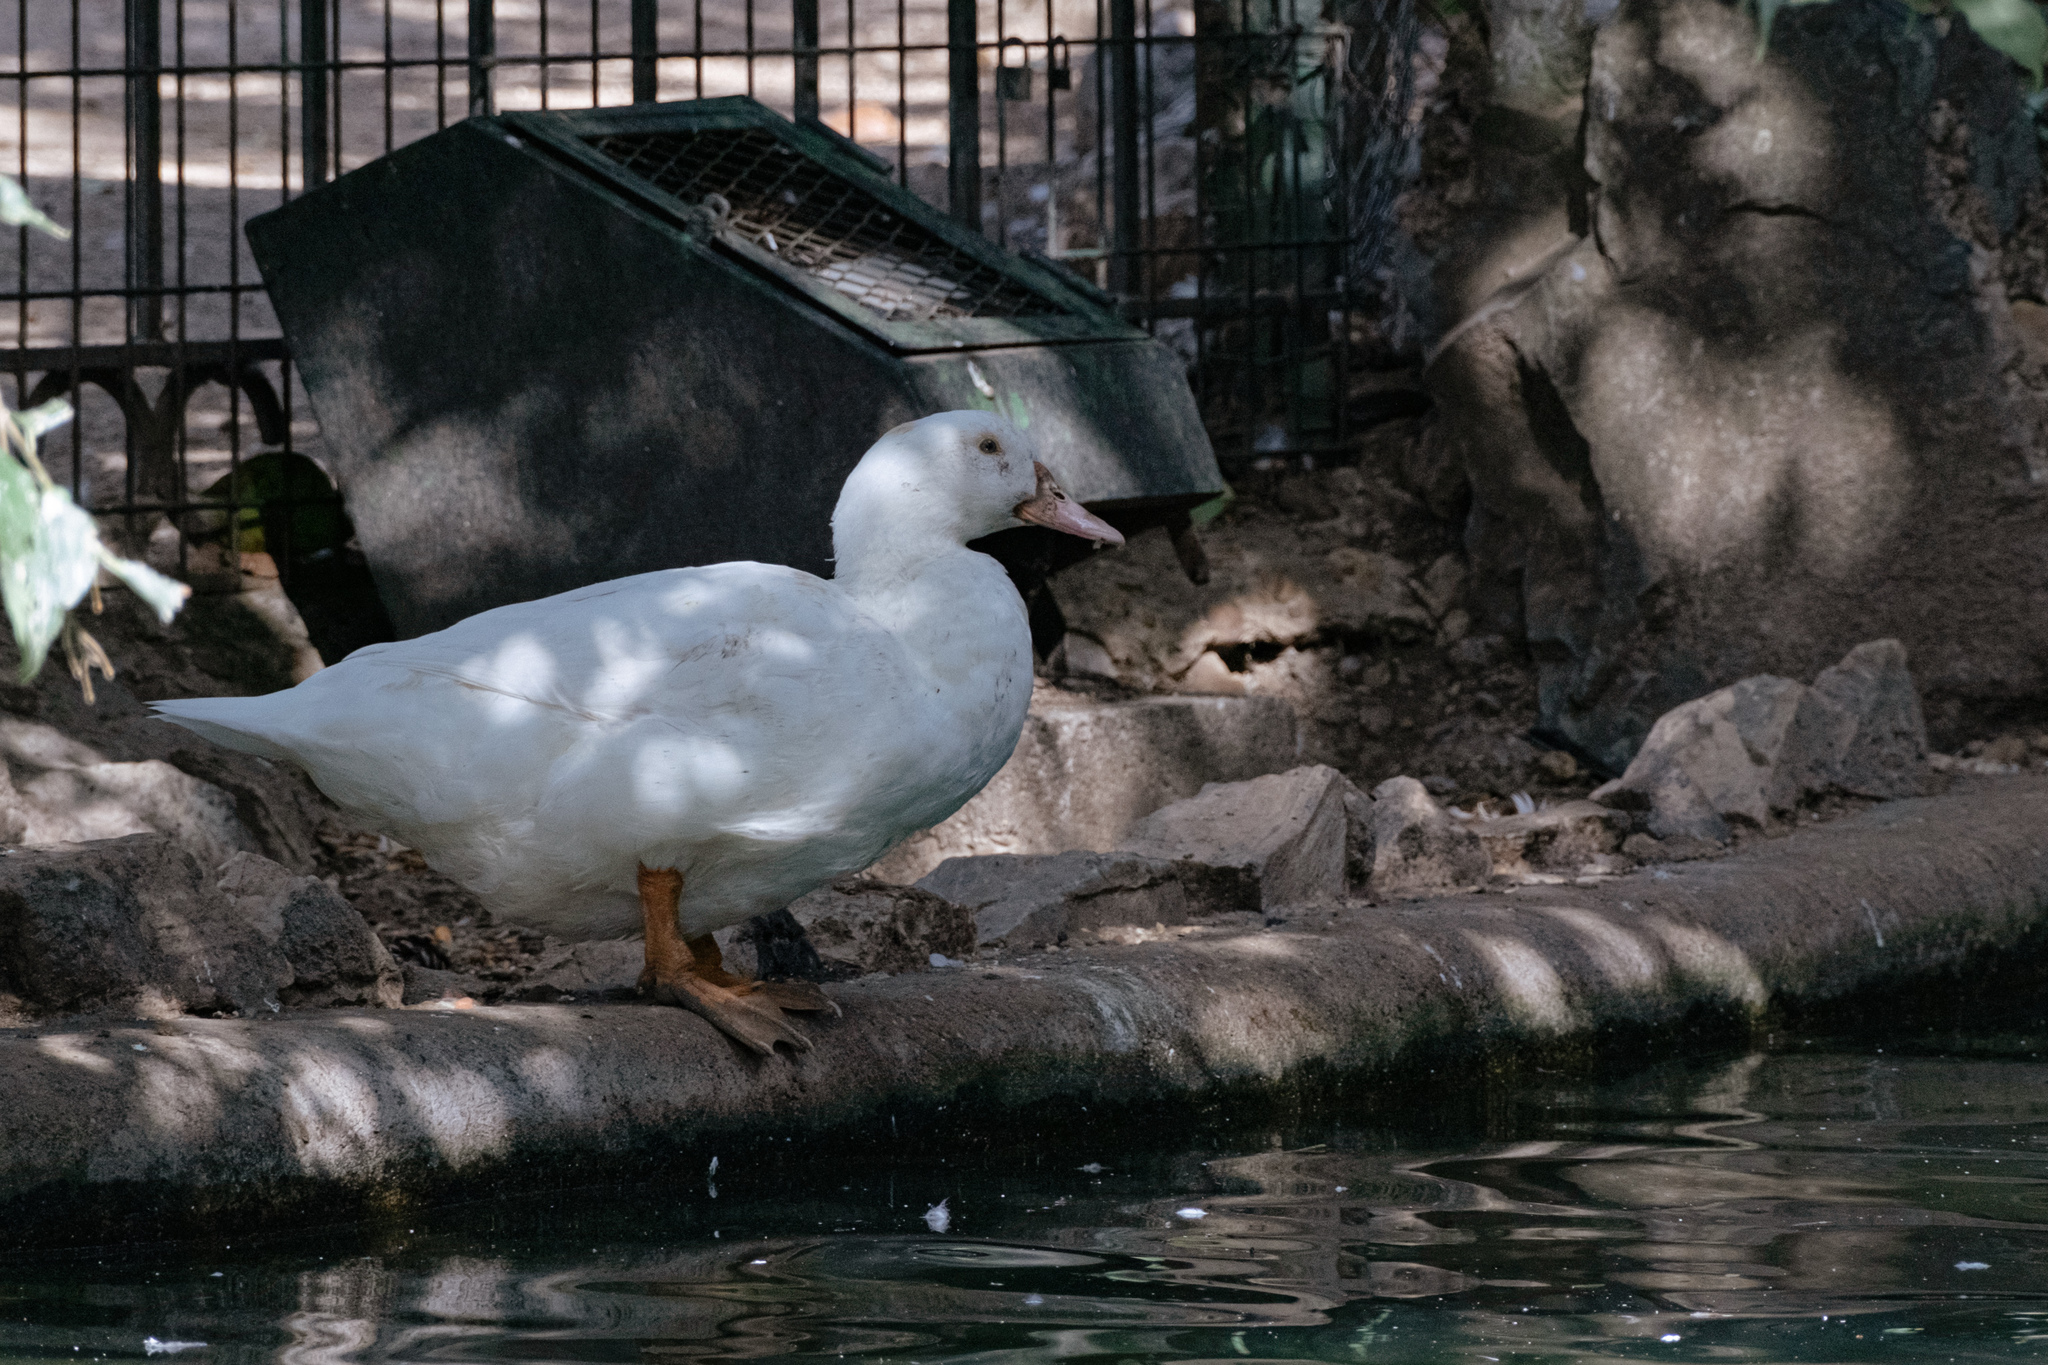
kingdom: Animalia
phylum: Chordata
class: Aves
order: Anseriformes
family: Anatidae
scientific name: Anatidae
